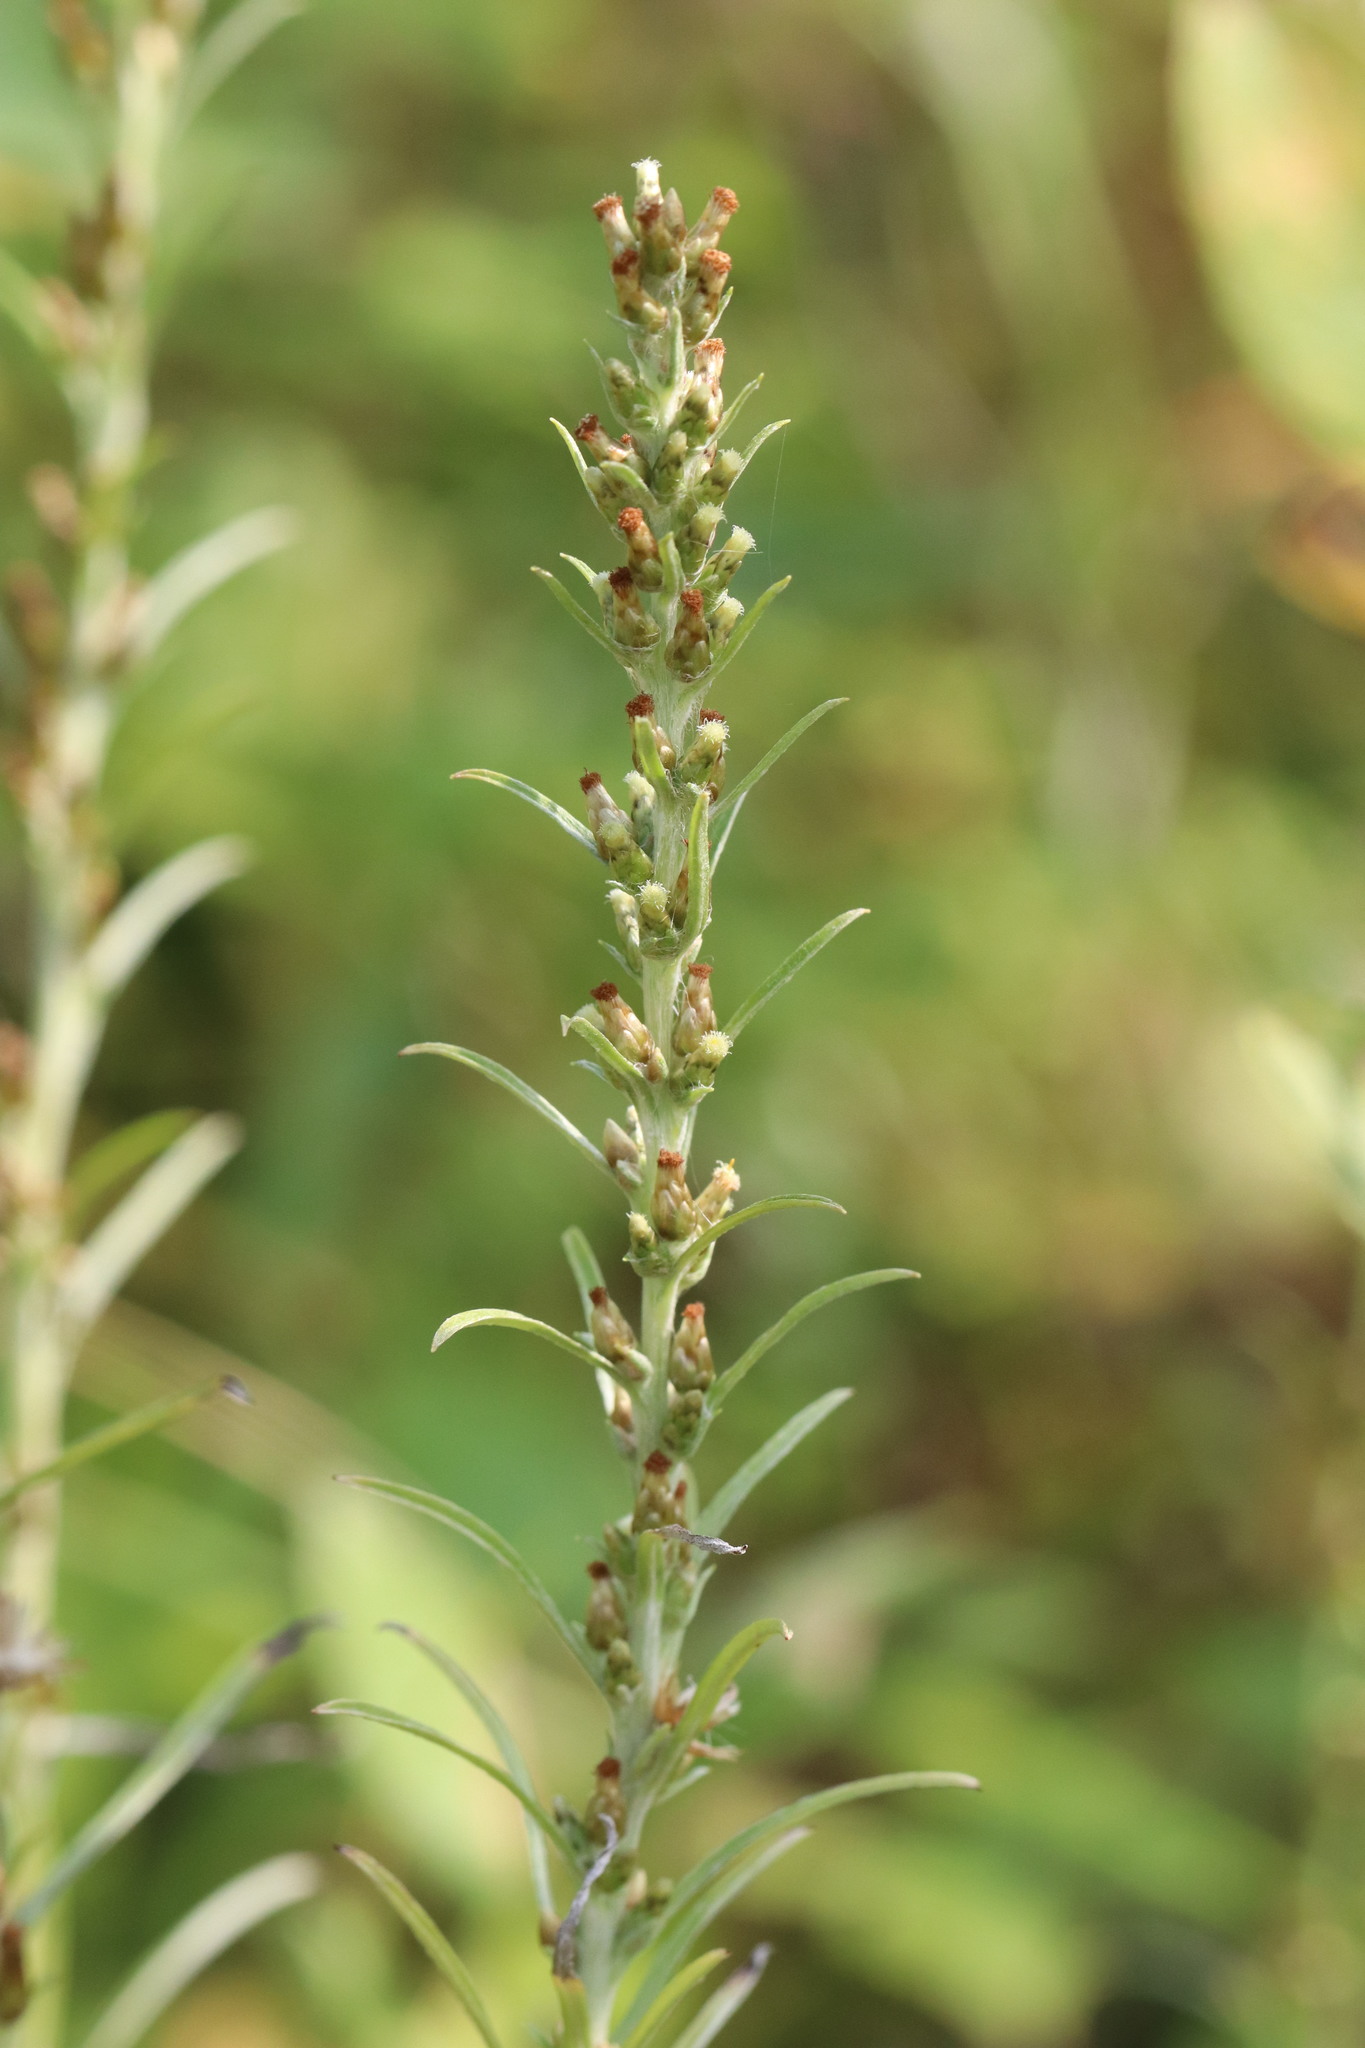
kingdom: Plantae
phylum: Tracheophyta
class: Magnoliopsida
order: Asterales
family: Asteraceae
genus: Omalotheca
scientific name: Omalotheca sylvatica
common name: Heath cudweed
